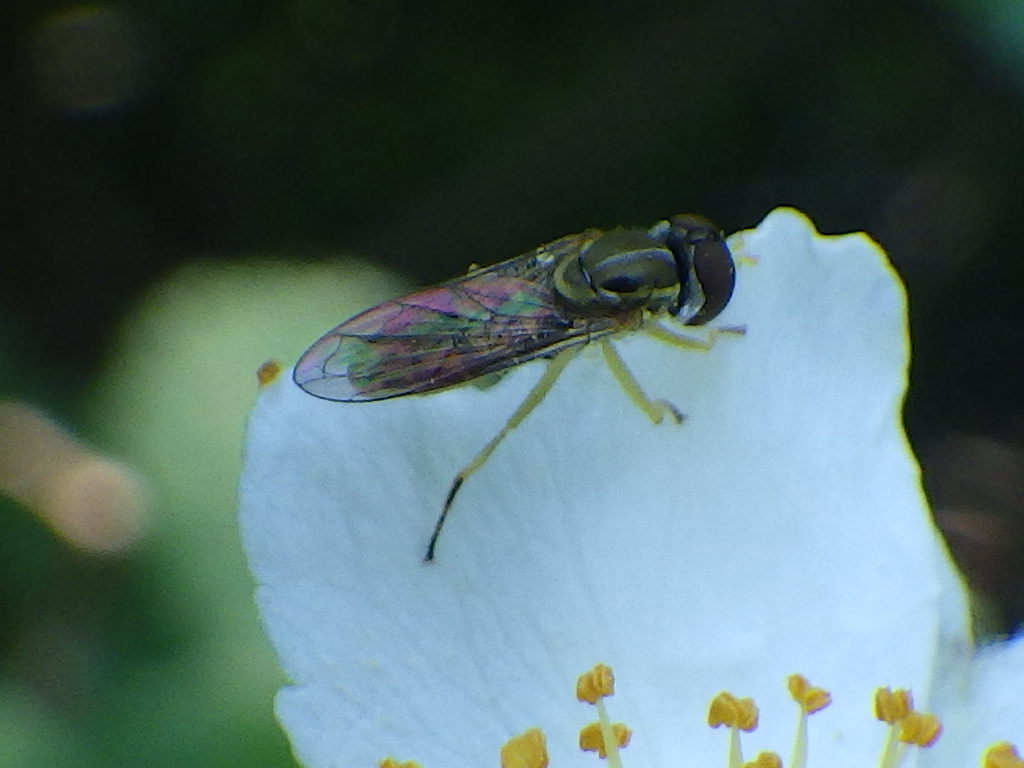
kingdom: Animalia
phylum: Arthropoda
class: Insecta
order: Diptera
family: Syrphidae
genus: Toxomerus
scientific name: Toxomerus marginatus
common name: Syrphid fly
